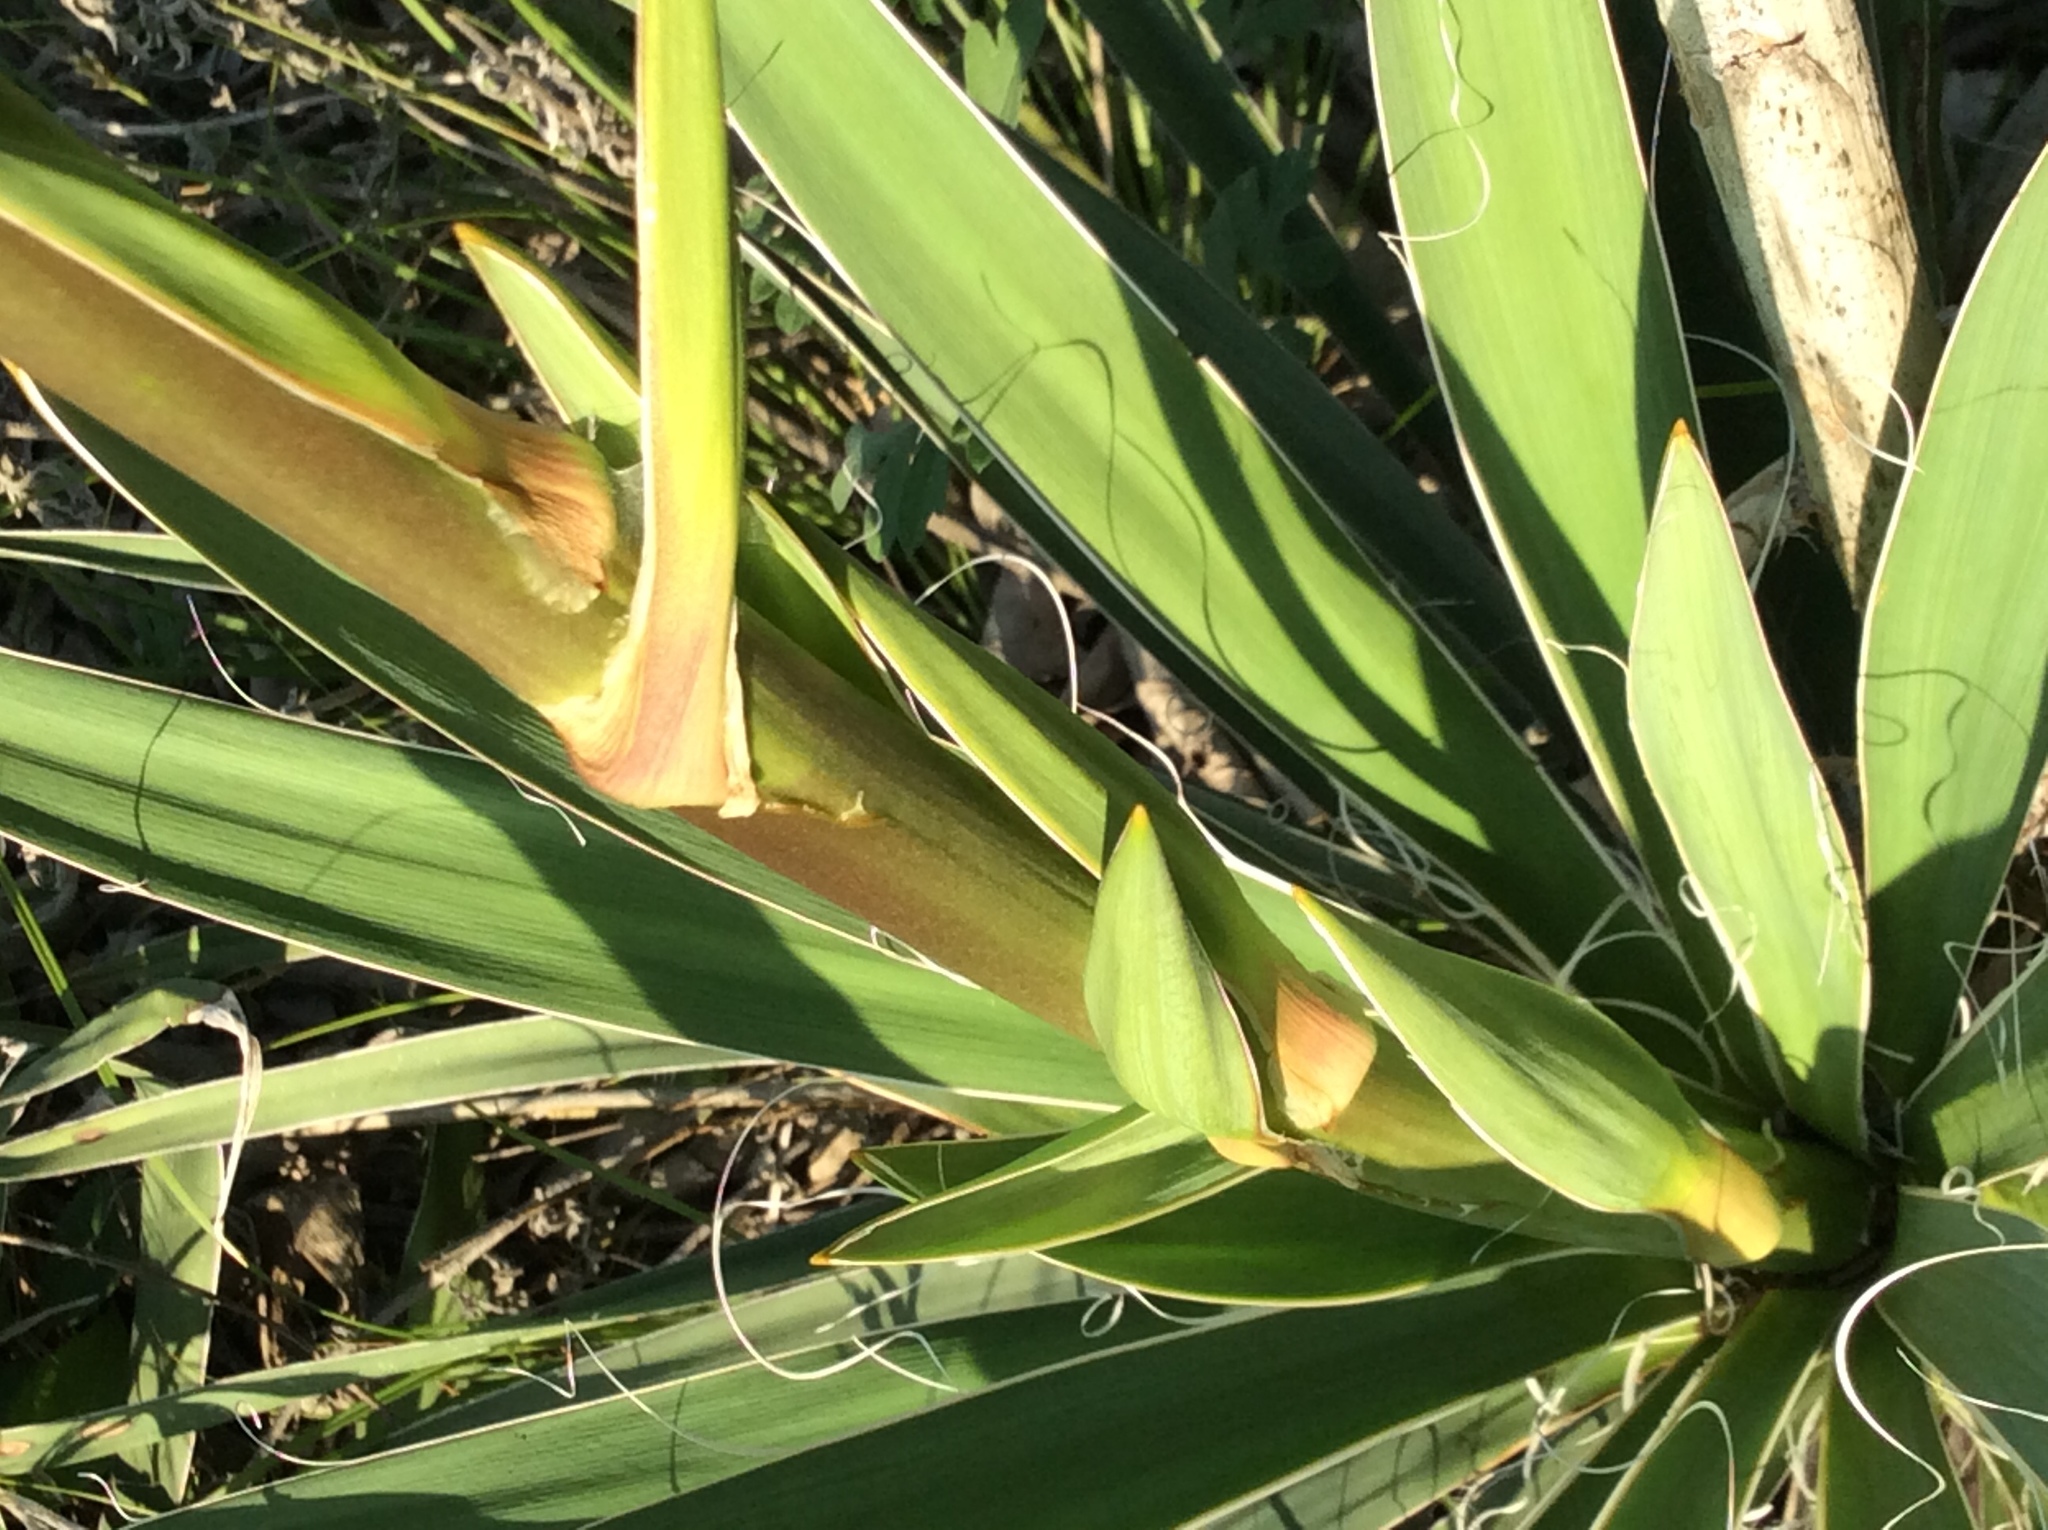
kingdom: Plantae
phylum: Tracheophyta
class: Liliopsida
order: Asparagales
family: Asparagaceae
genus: Yucca
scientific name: Yucca arkansana
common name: Arkansas yucca
